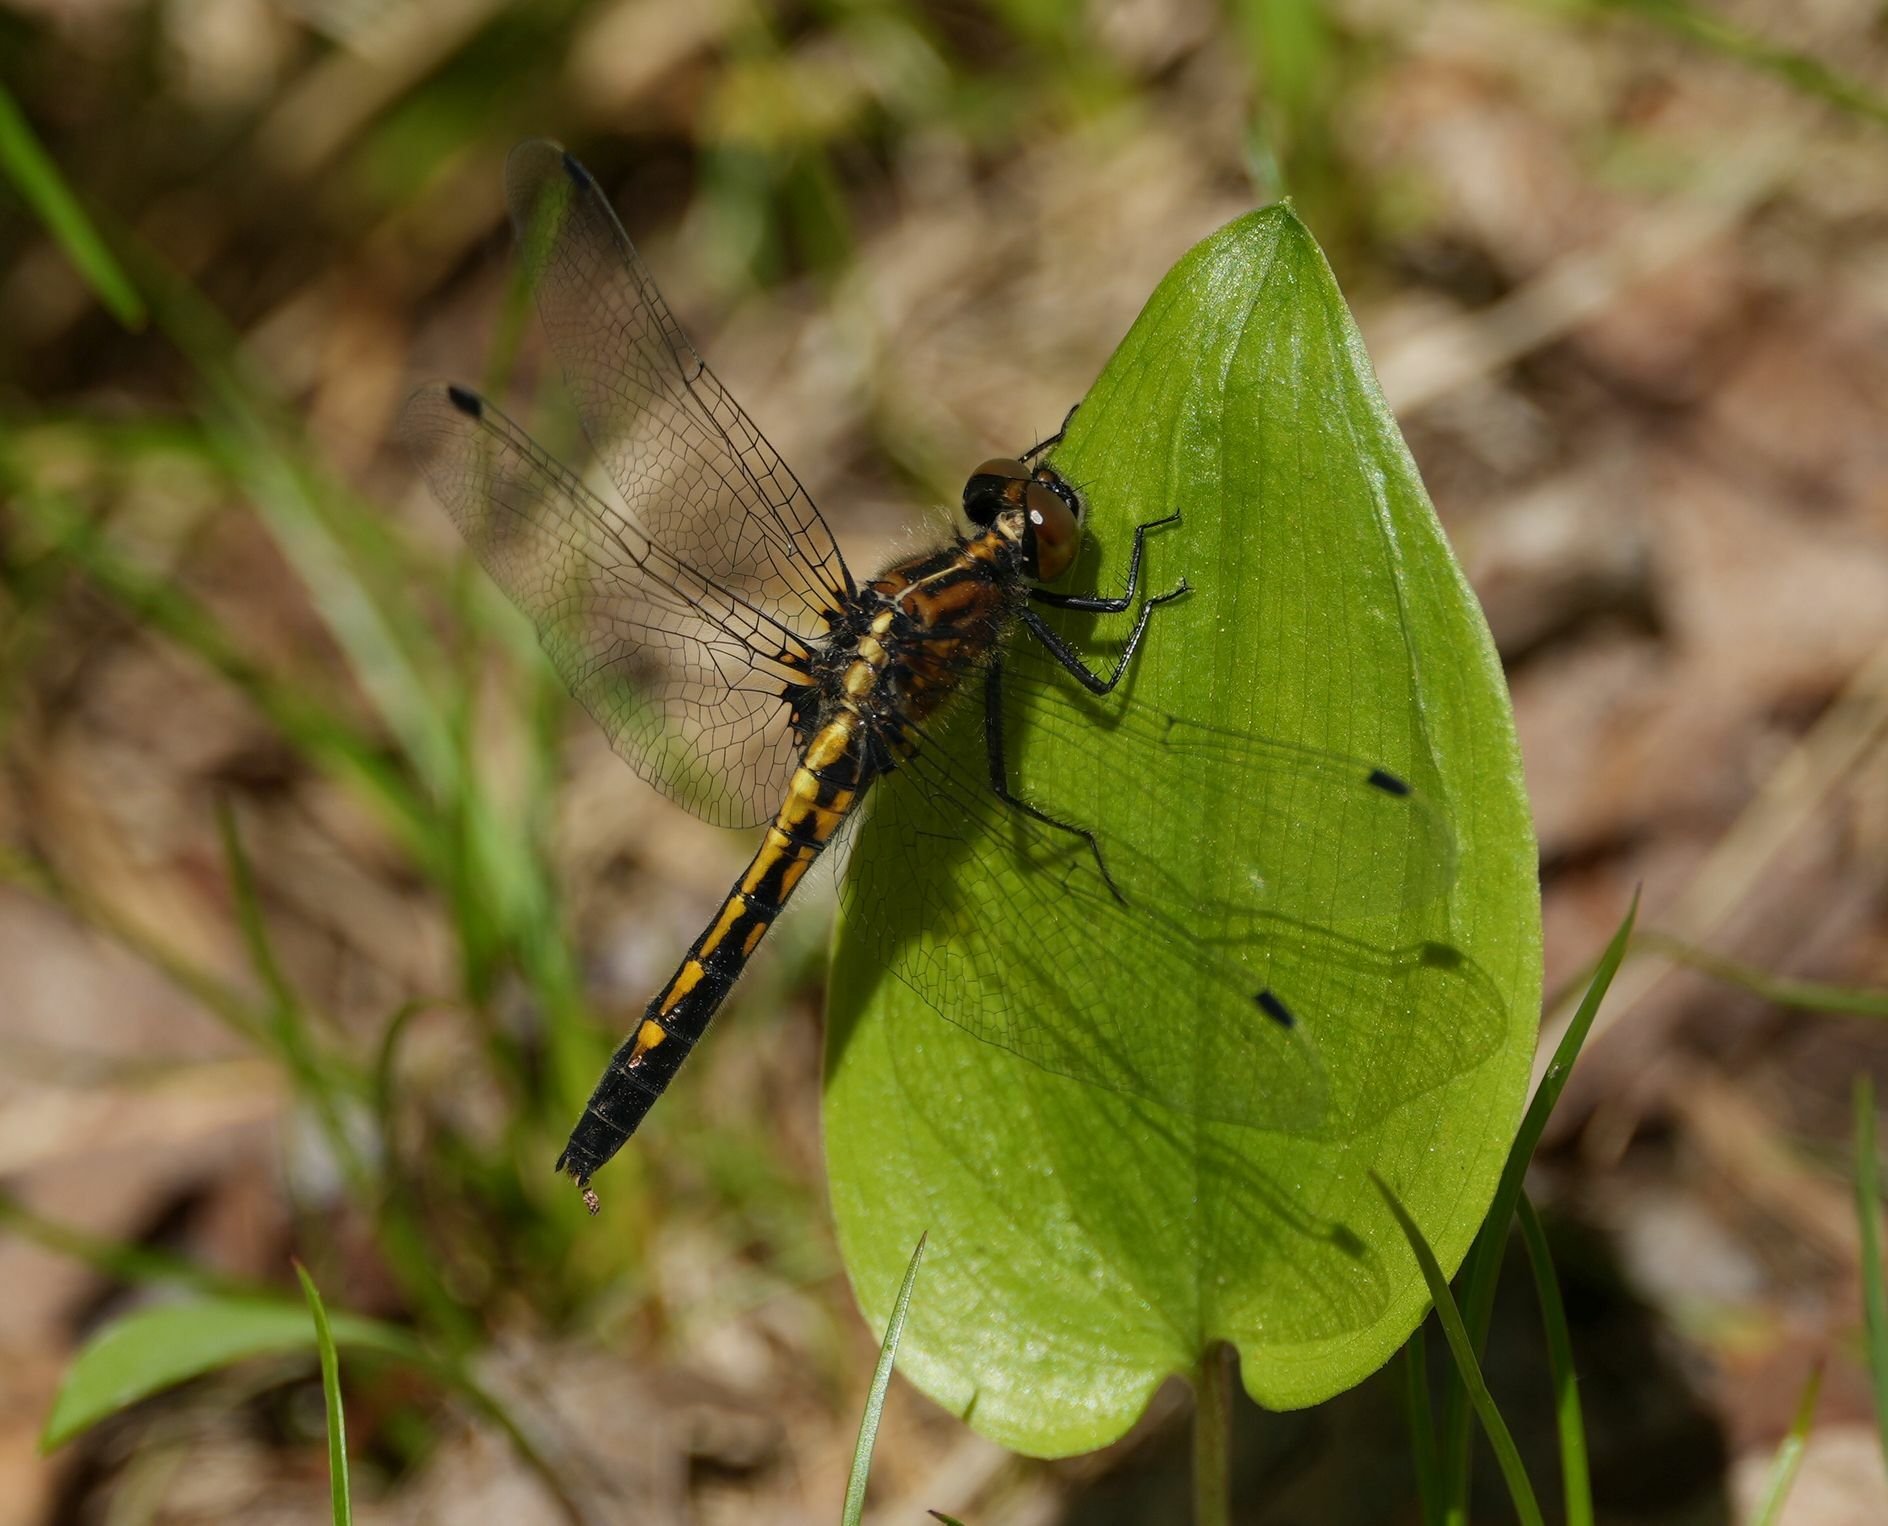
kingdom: Animalia
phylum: Arthropoda
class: Insecta
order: Odonata
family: Libellulidae
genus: Leucorrhinia
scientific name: Leucorrhinia intacta
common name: Dot-tailed whiteface
